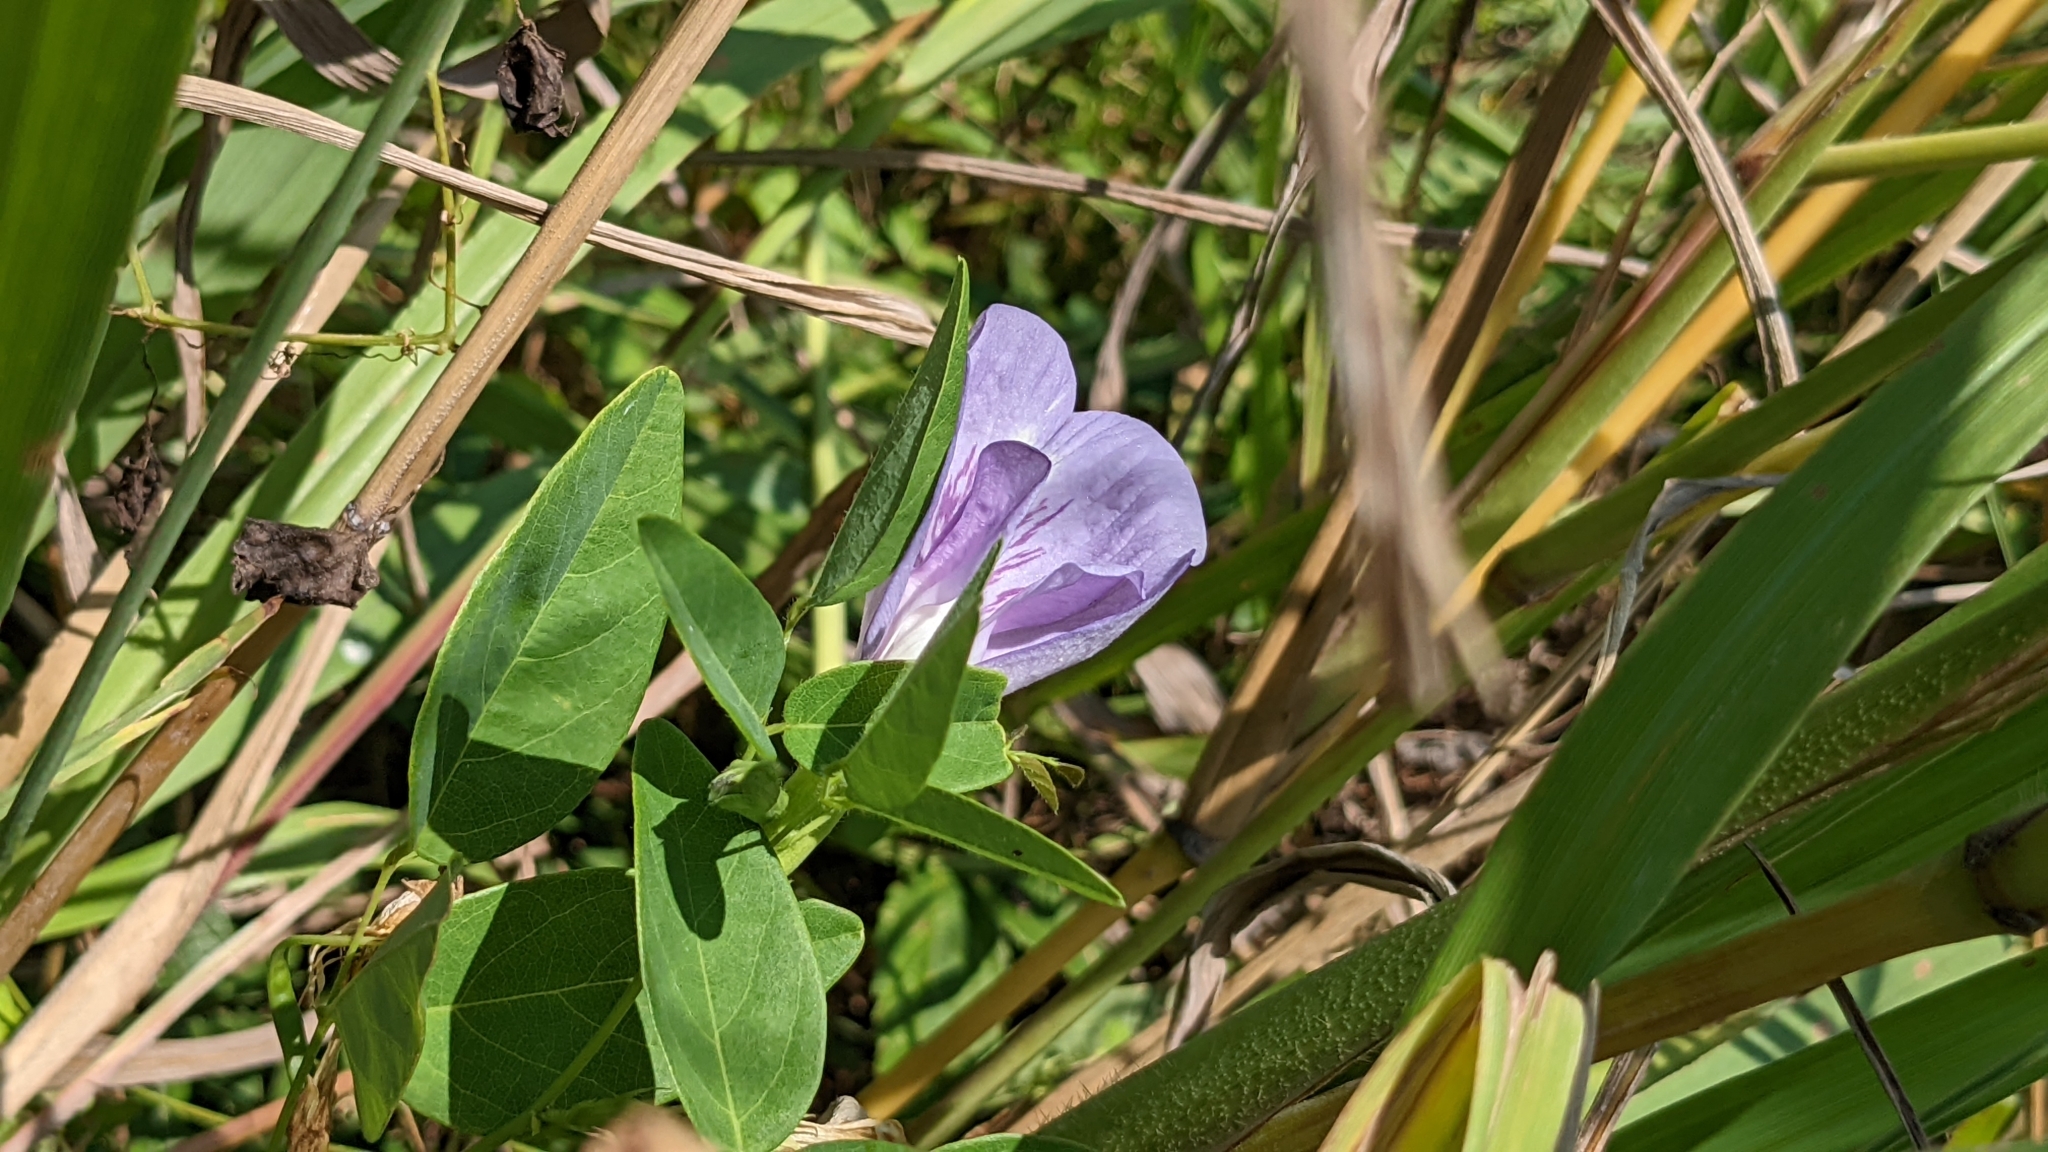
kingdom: Plantae
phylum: Tracheophyta
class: Magnoliopsida
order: Fabales
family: Fabaceae
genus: Clitoria
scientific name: Clitoria mariana
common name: Butterfly-pea
